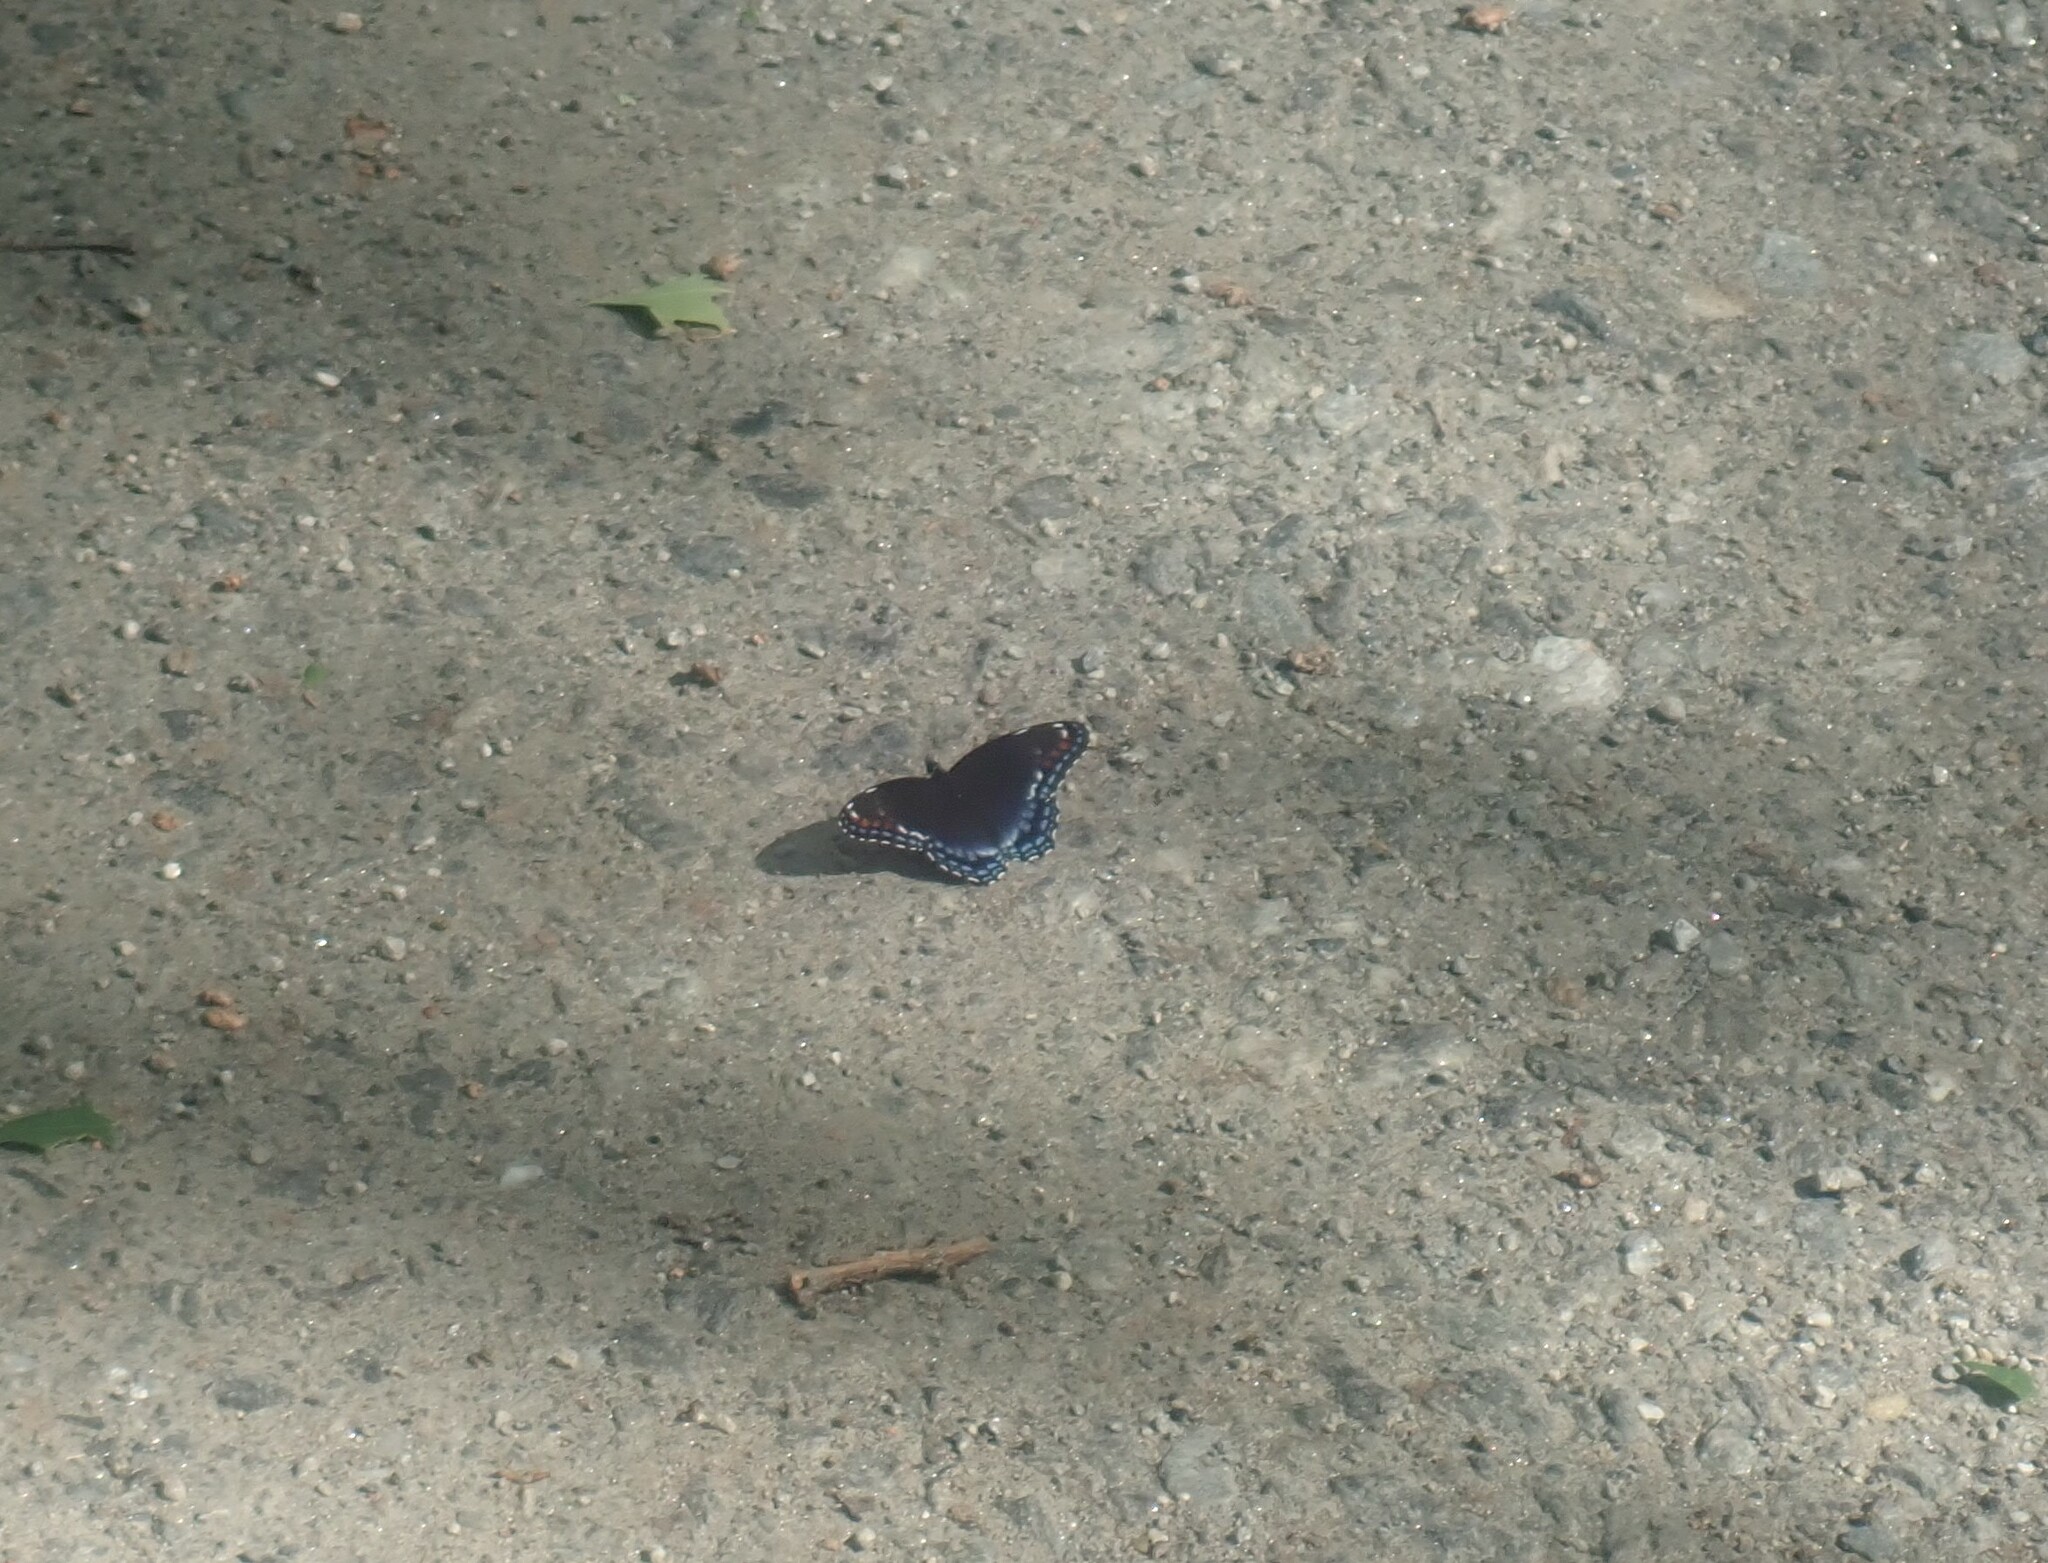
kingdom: Animalia
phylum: Arthropoda
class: Insecta
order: Lepidoptera
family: Nymphalidae
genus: Limenitis
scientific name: Limenitis arthemis
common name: Red-spotted admiral
